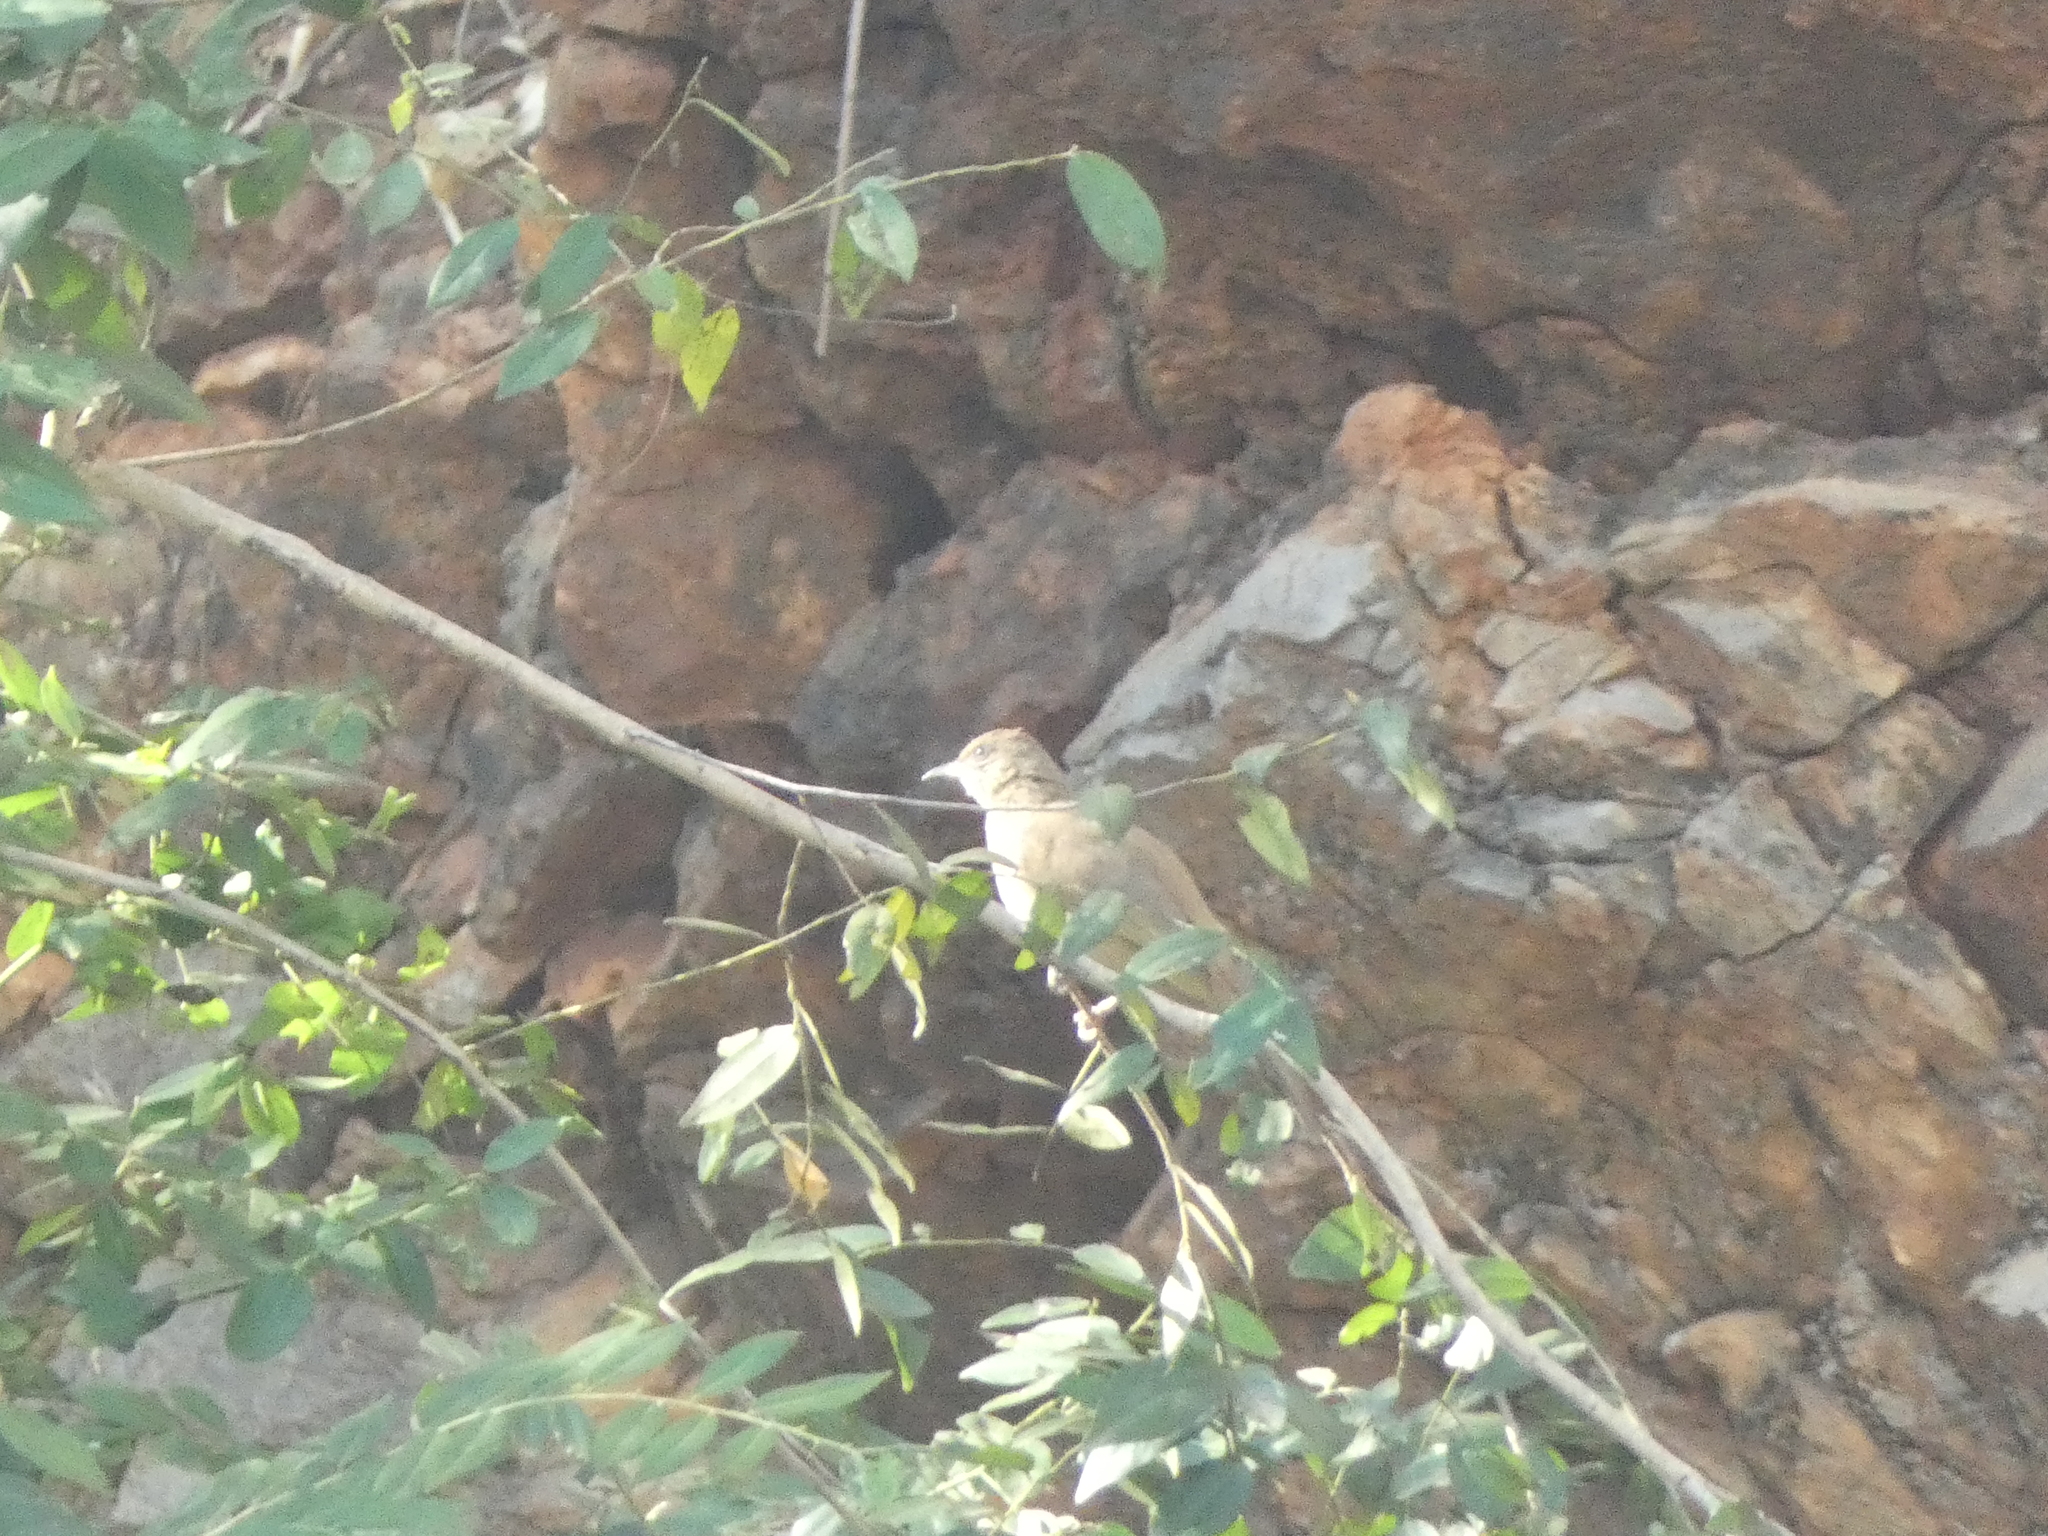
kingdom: Animalia
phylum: Chordata
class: Aves
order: Passeriformes
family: Pycnonotidae
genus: Pycnonotus
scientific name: Pycnonotus blanfordi
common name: Streak-eared bulbul
